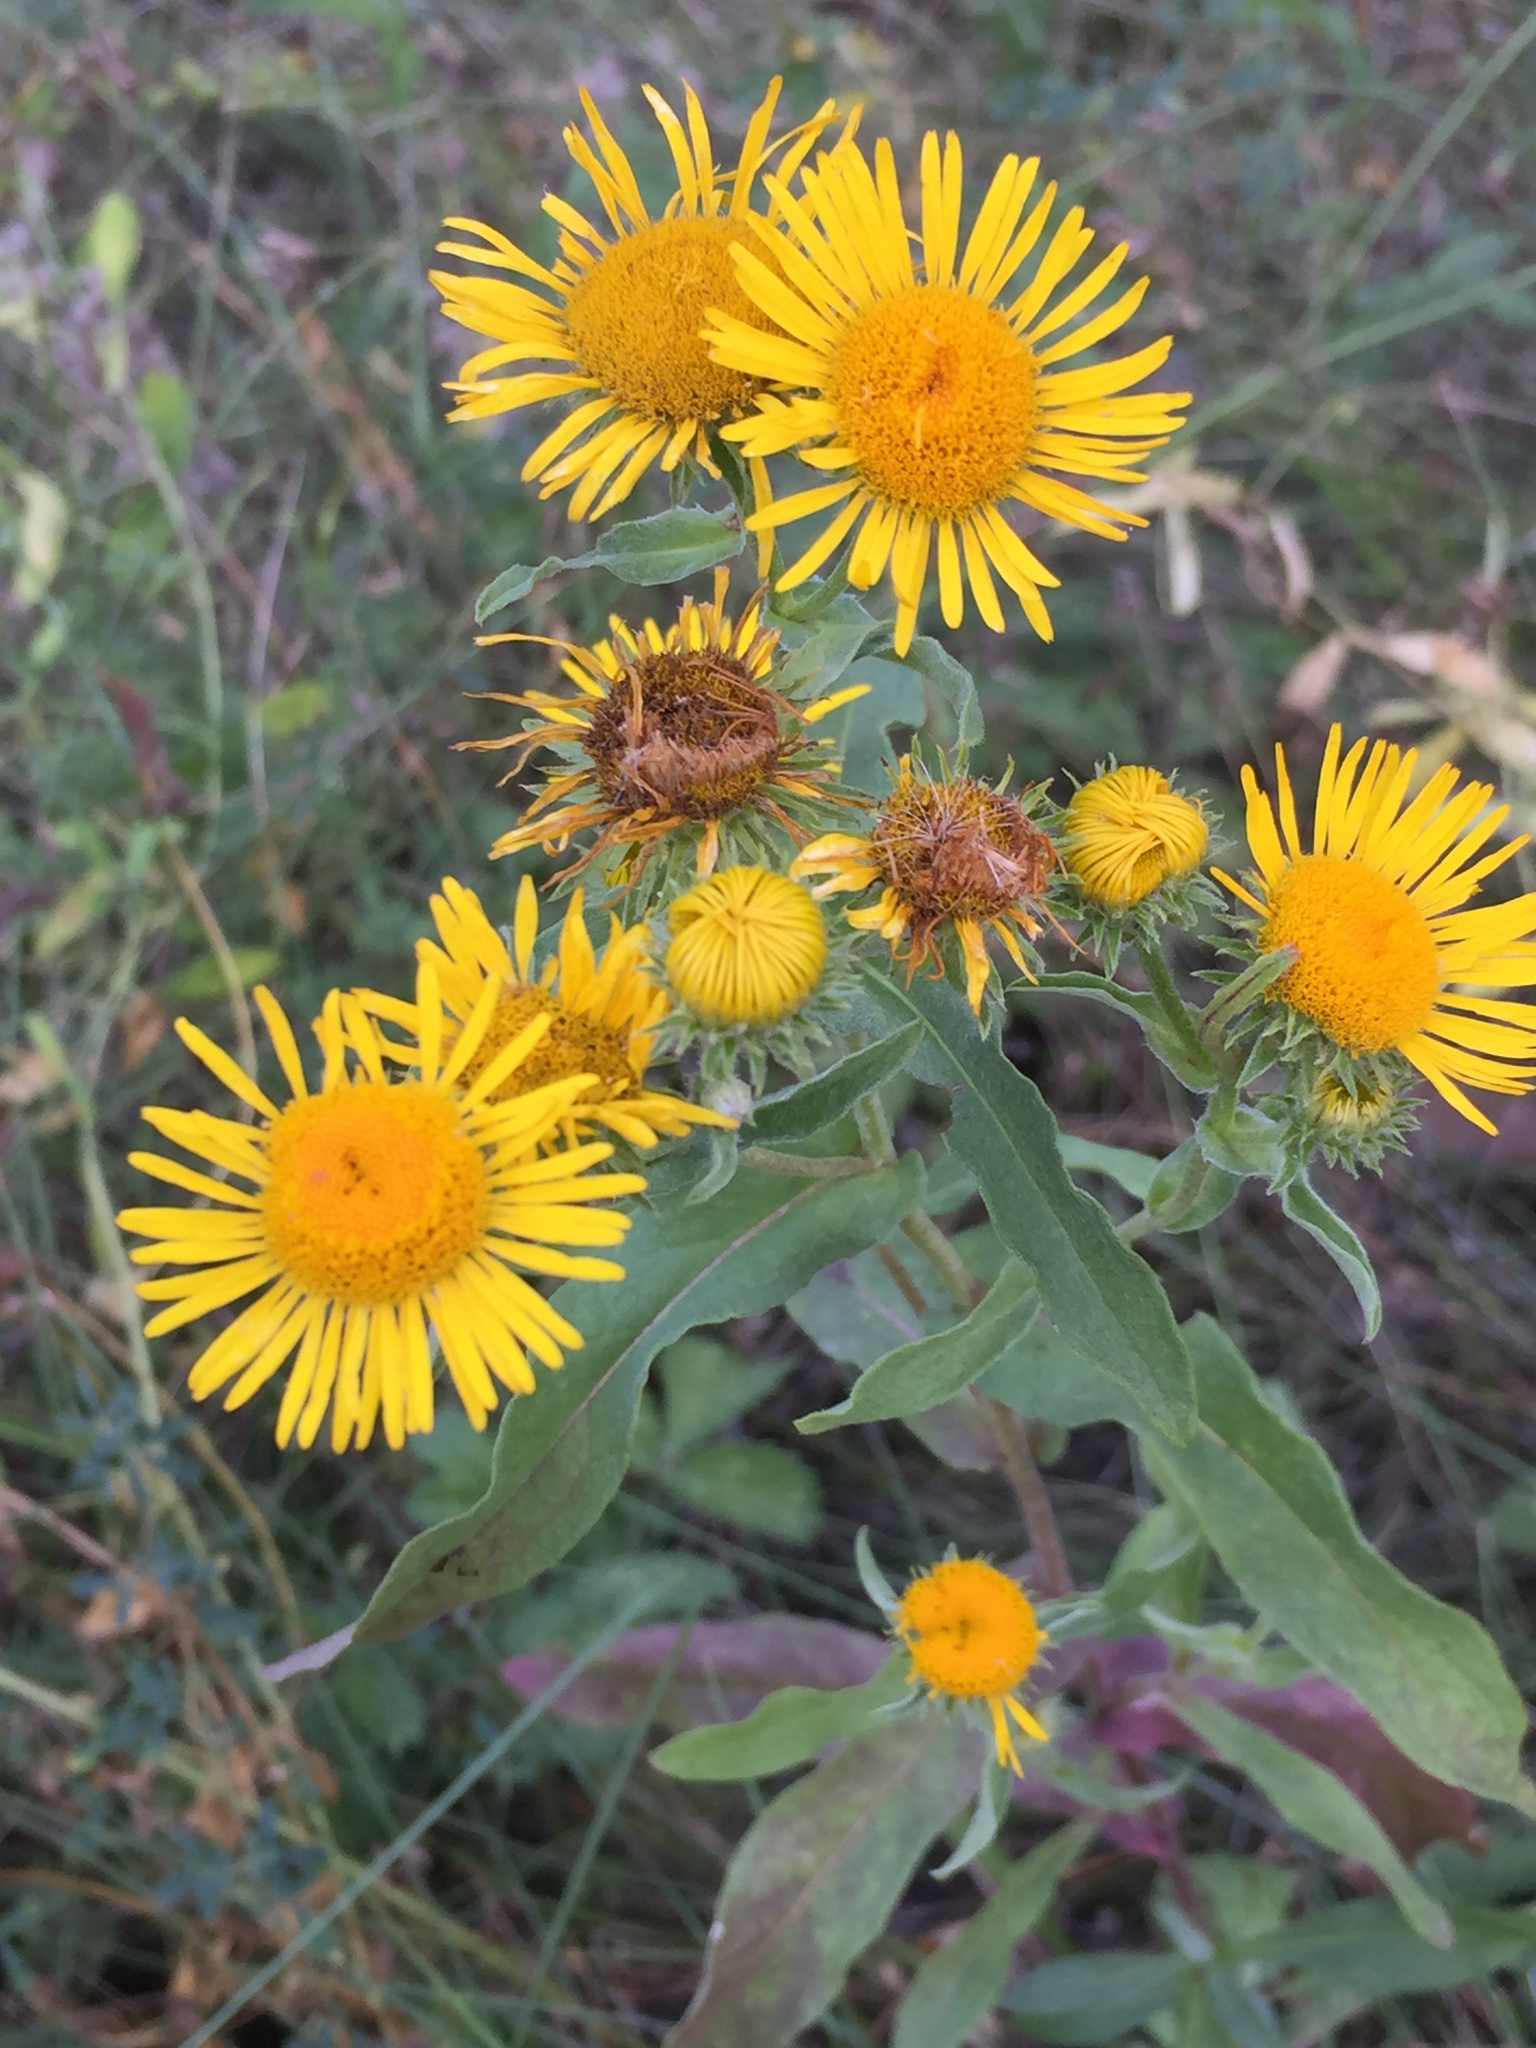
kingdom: Plantae
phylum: Tracheophyta
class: Magnoliopsida
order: Asterales
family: Asteraceae
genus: Pentanema
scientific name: Pentanema britannicum
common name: British elecampane
